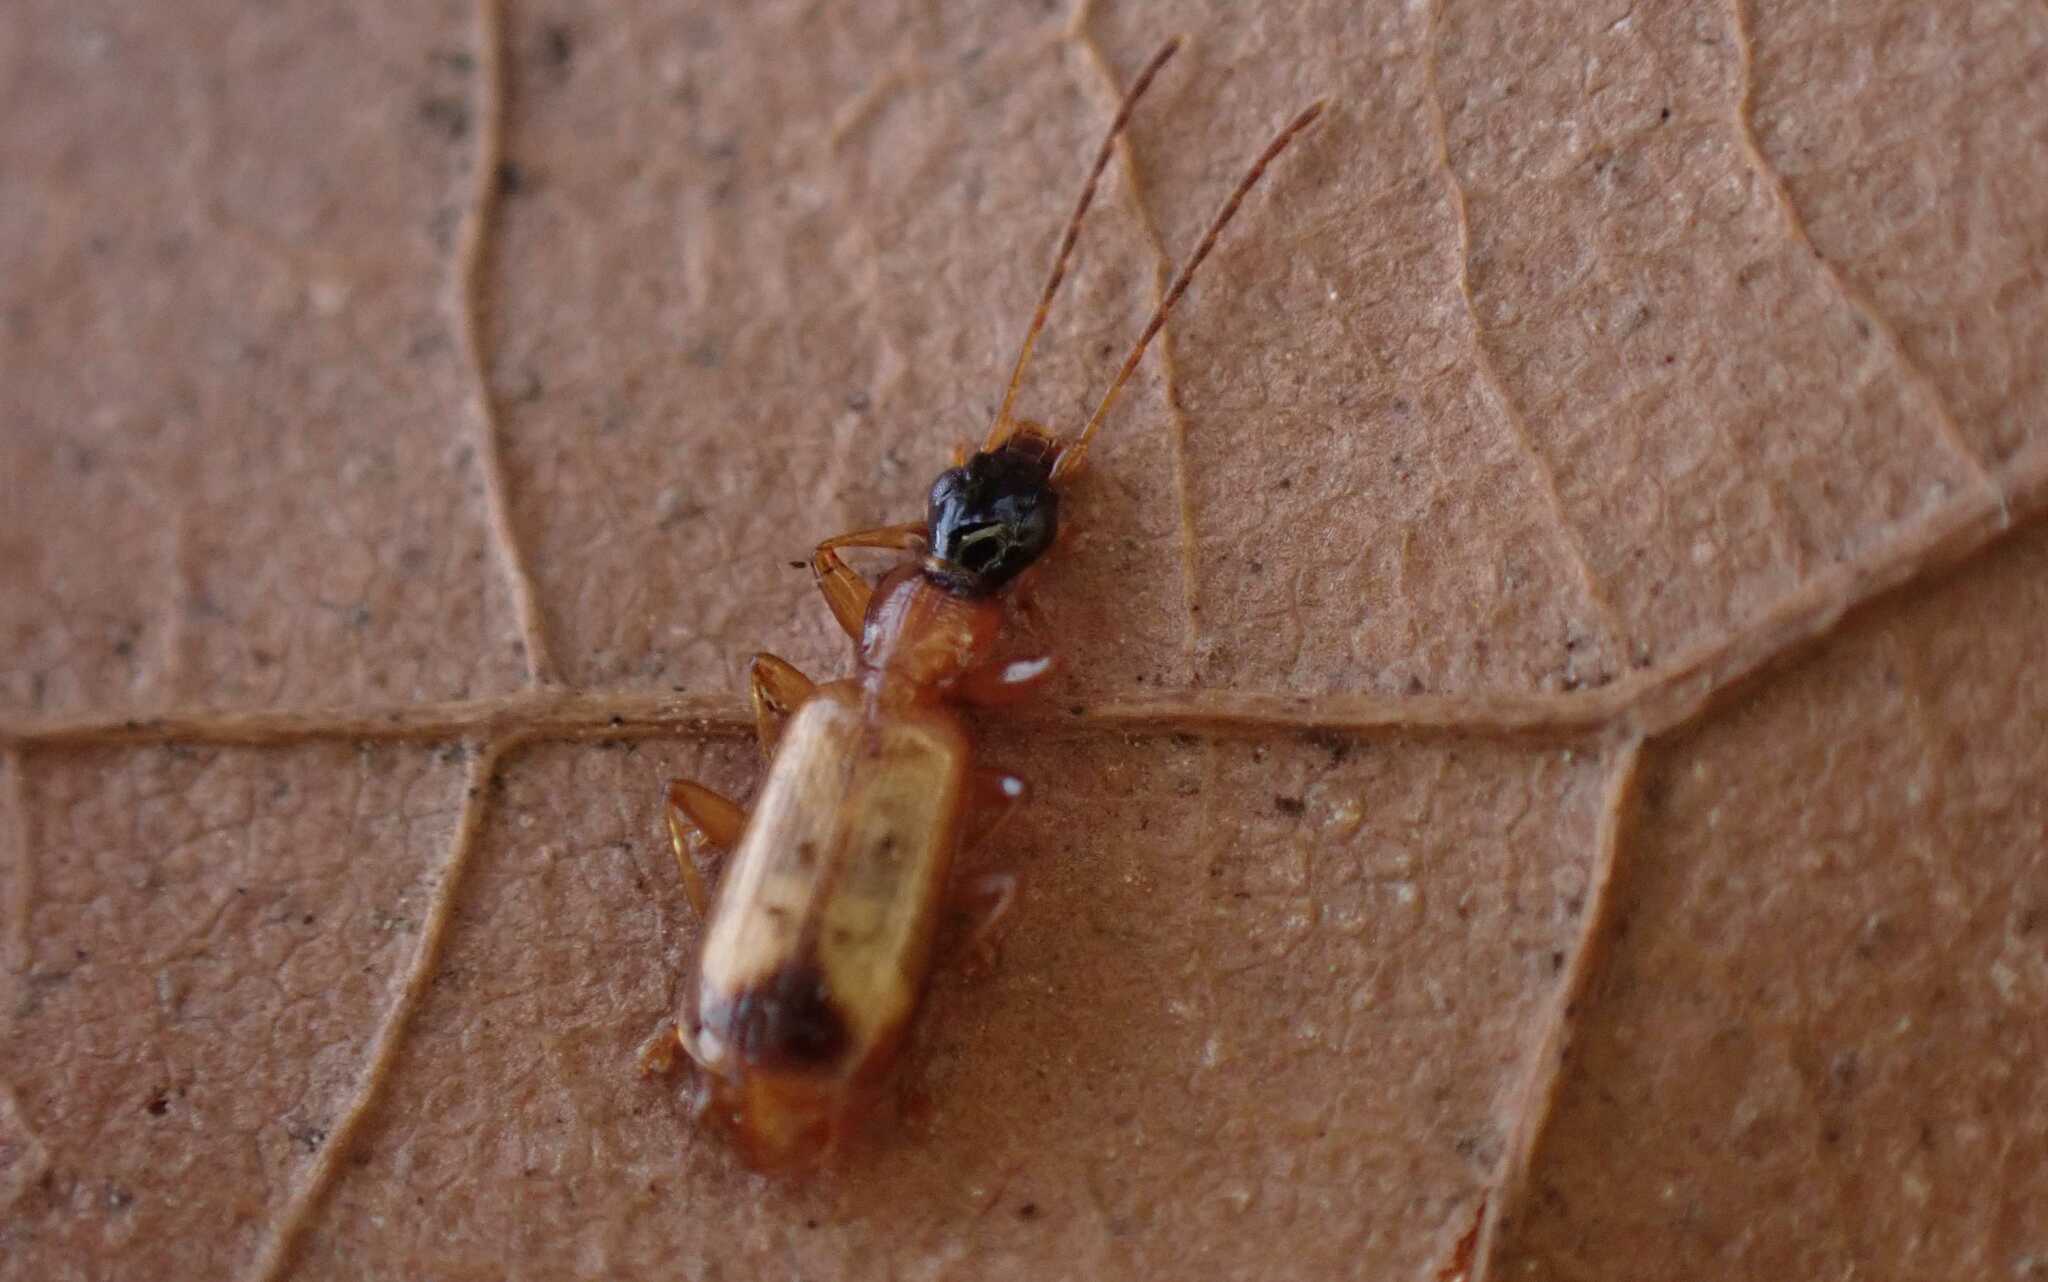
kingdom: Animalia
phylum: Arthropoda
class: Insecta
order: Coleoptera
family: Carabidae
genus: Demetrias
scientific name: Demetrias monostigma
